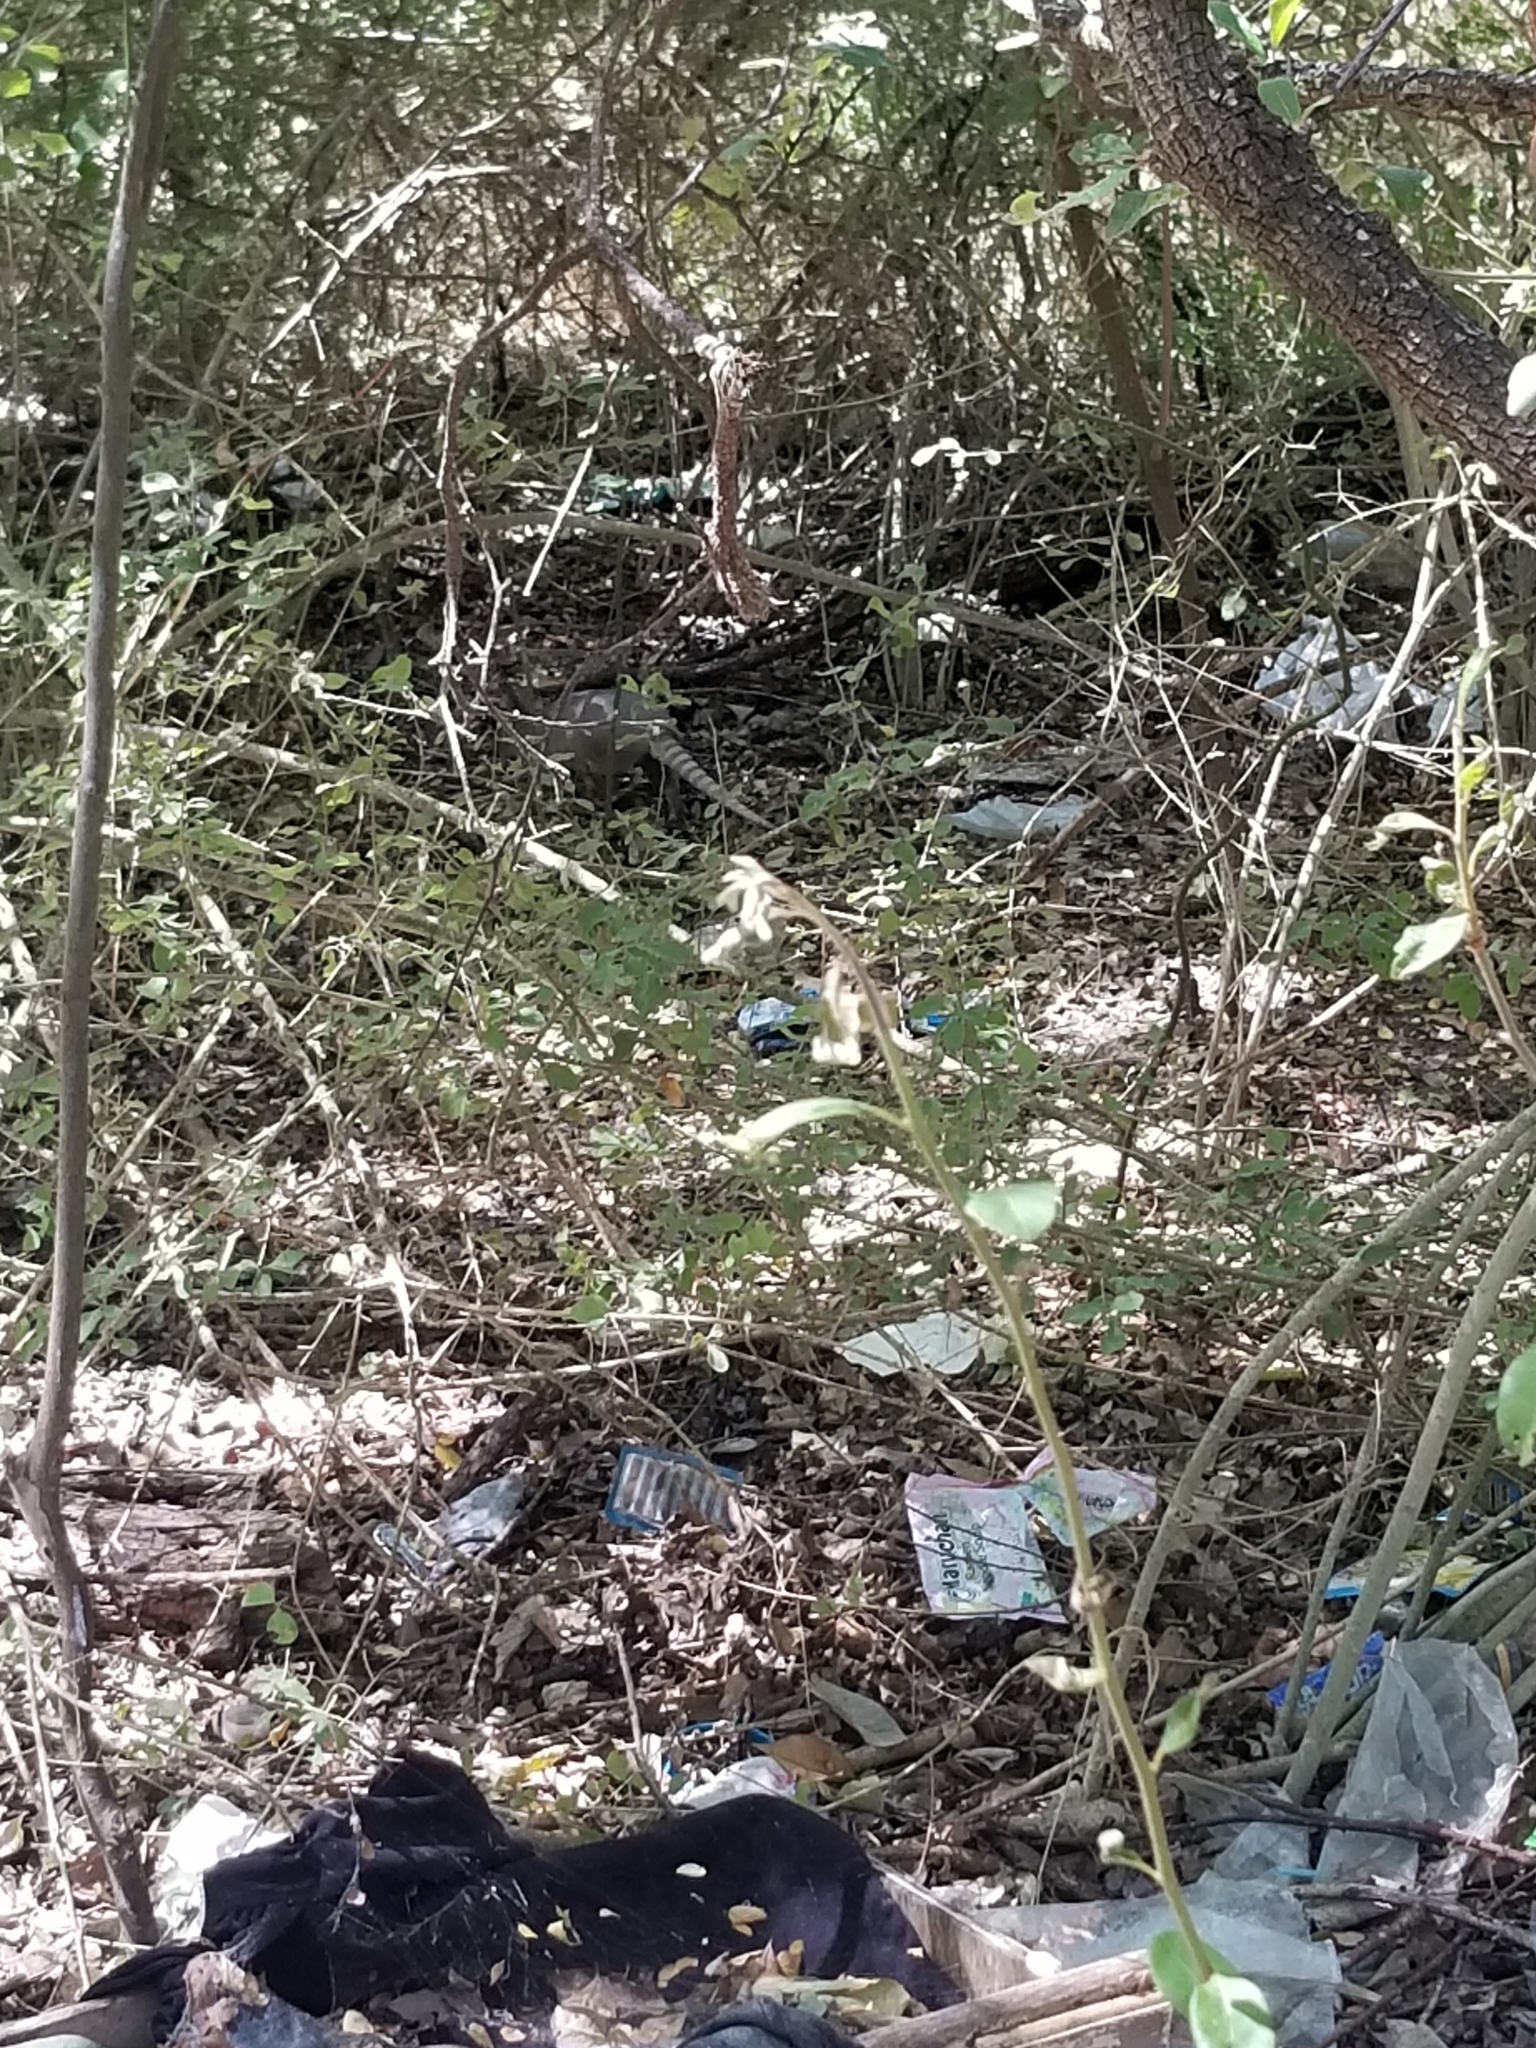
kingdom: Animalia
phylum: Chordata
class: Mammalia
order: Cingulata
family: Dasypodidae
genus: Dasypus
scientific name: Dasypus novemcinctus
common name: Nine-banded armadillo
